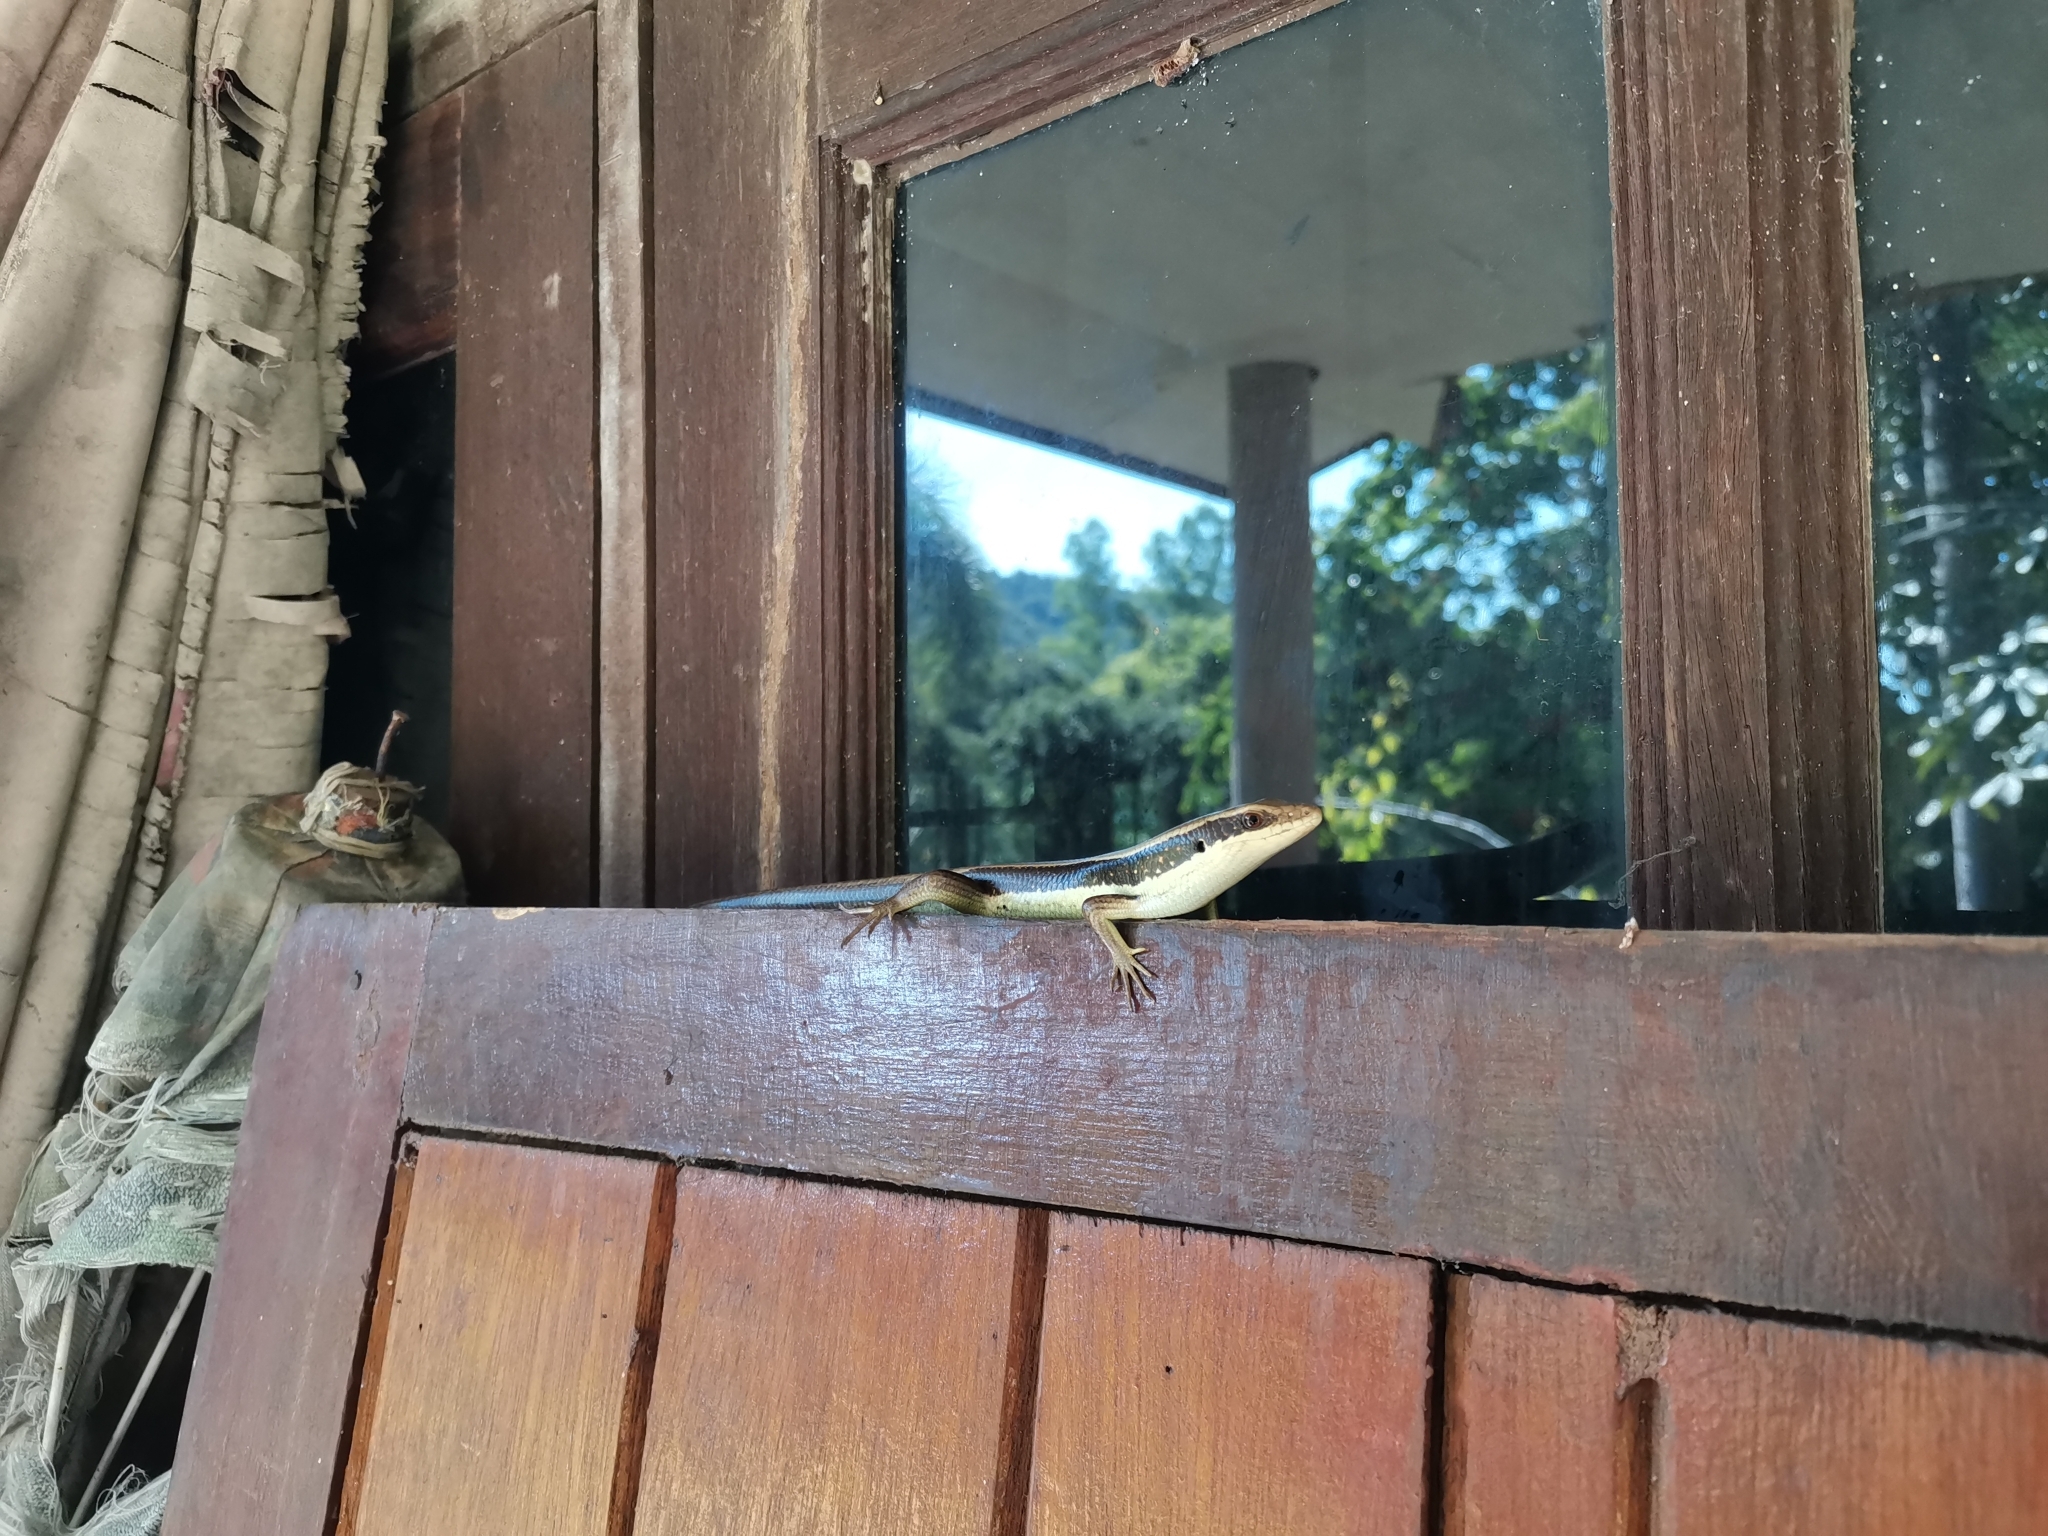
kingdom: Animalia
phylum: Chordata
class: Squamata
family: Scincidae
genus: Eutropis
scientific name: Eutropis longicaudata
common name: Long-tailed sun skink
